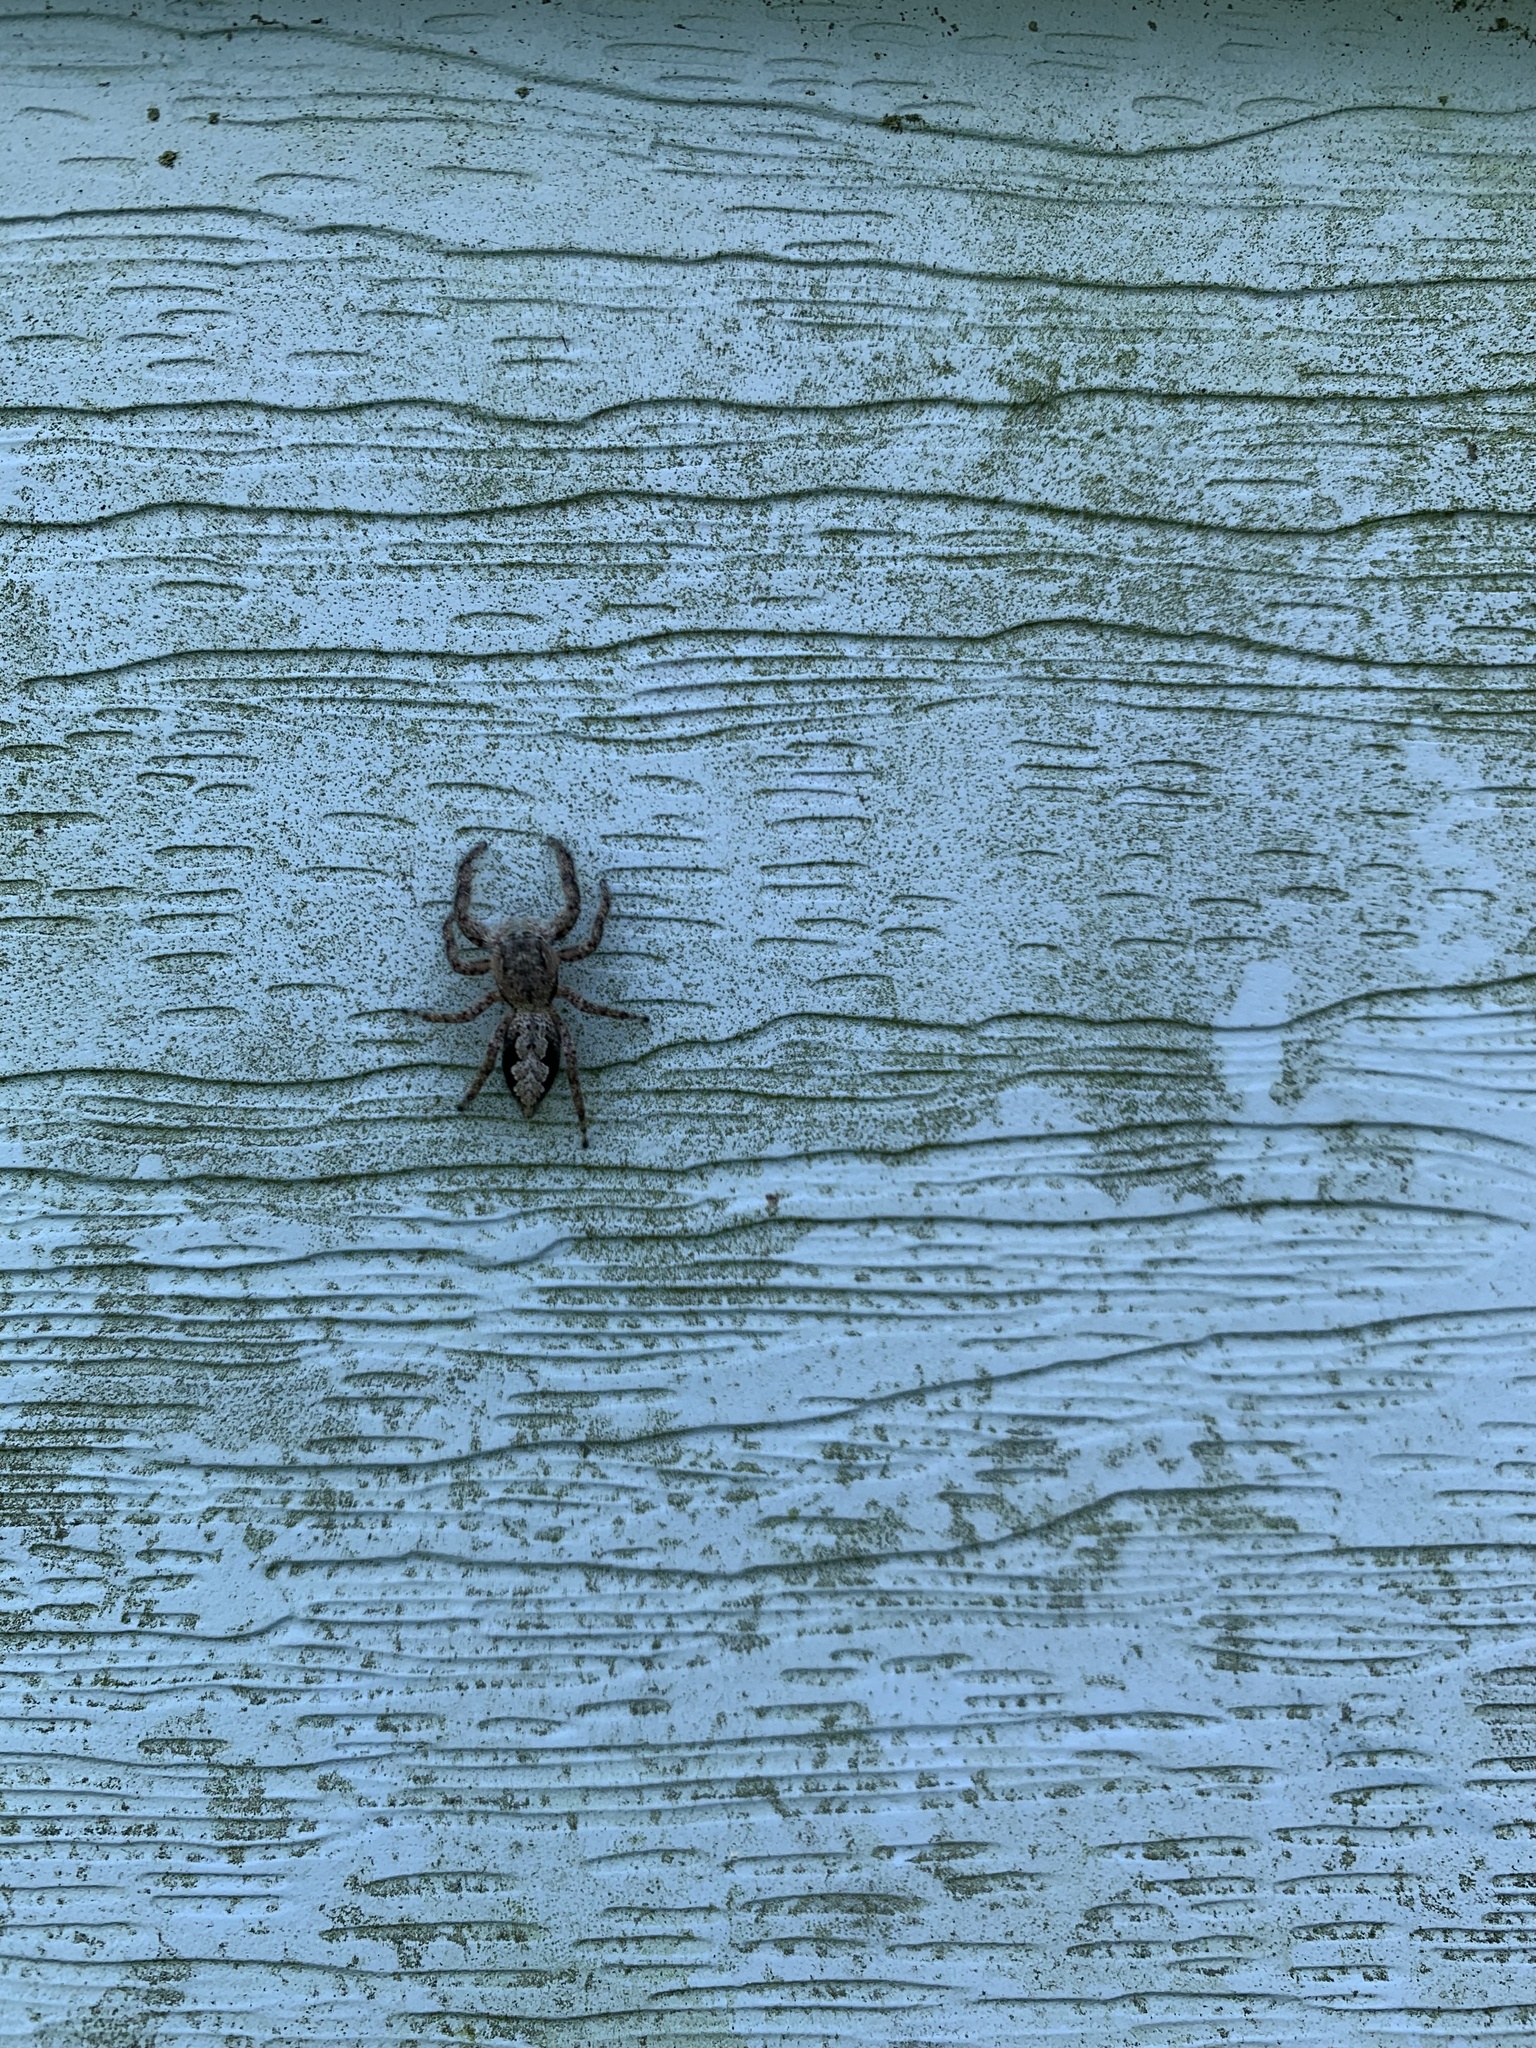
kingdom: Animalia
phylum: Arthropoda
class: Arachnida
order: Araneae
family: Salticidae
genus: Platycryptus
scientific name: Platycryptus undatus
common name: Tan jumping spider
